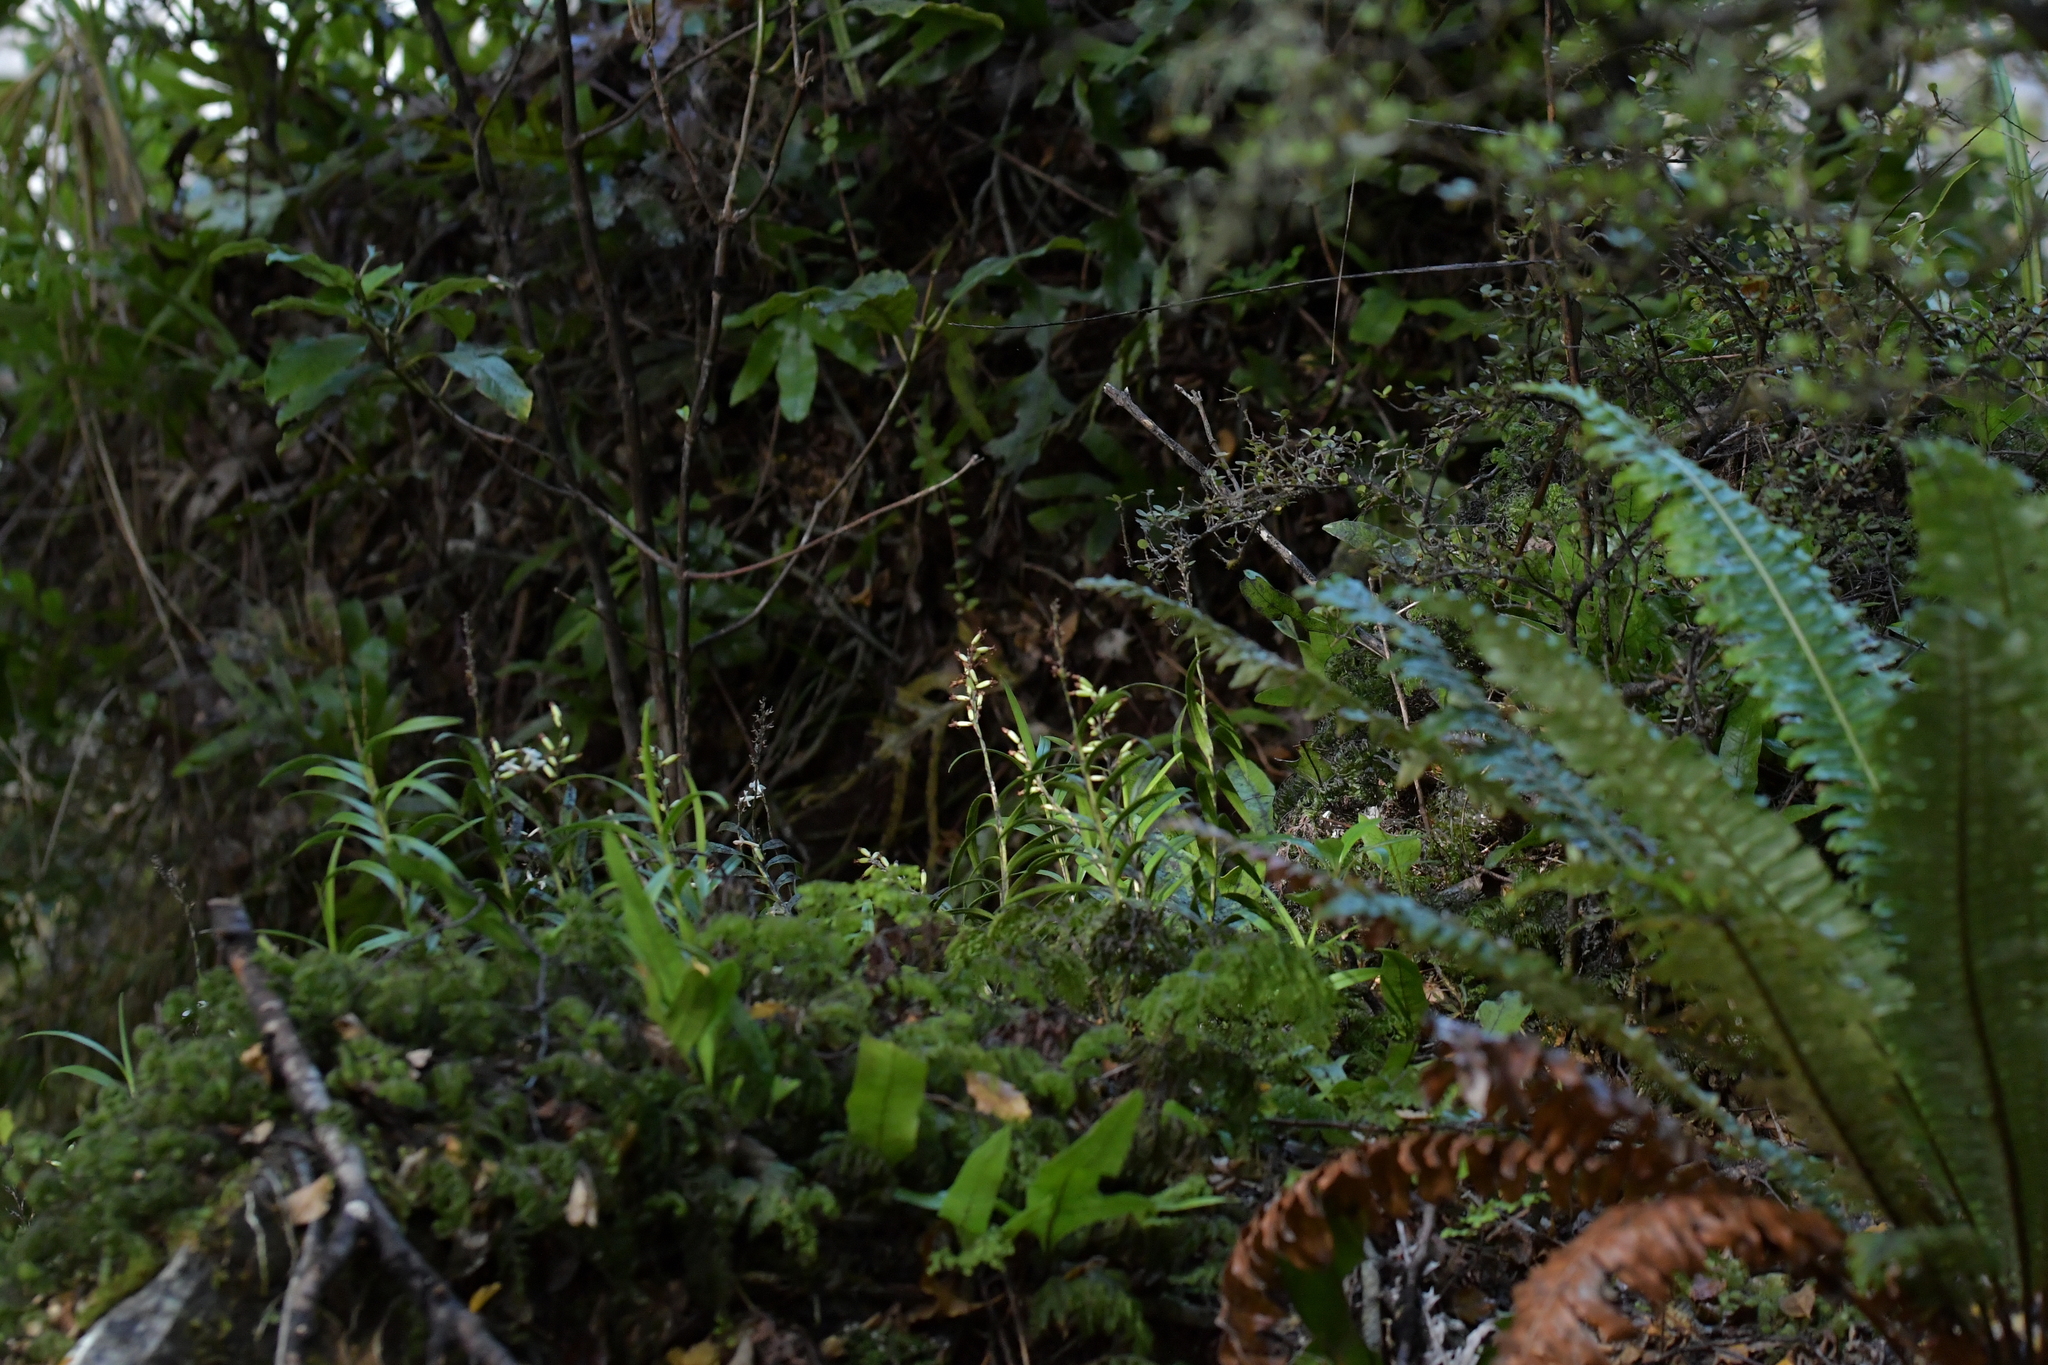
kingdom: Plantae
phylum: Tracheophyta
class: Liliopsida
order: Asparagales
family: Orchidaceae
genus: Earina
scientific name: Earina autumnalis
